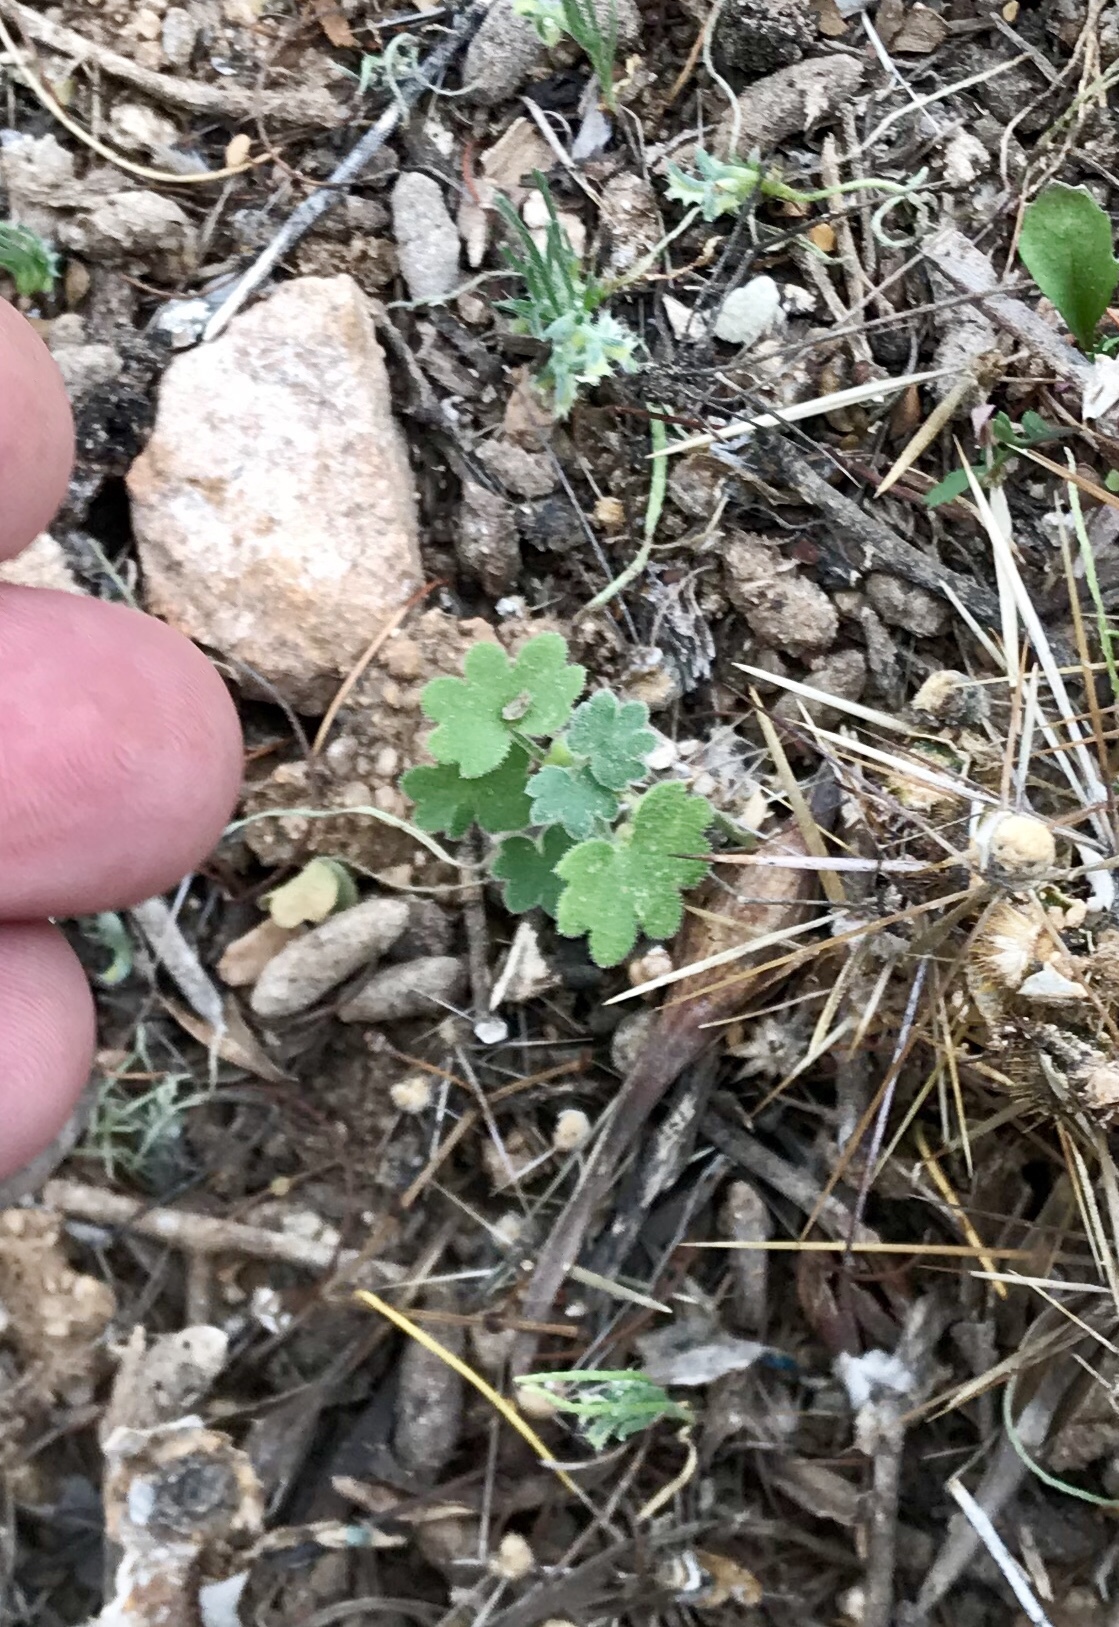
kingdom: Plantae
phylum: Tracheophyta
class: Magnoliopsida
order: Apiales
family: Apiaceae
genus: Bowlesia
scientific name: Bowlesia incana
